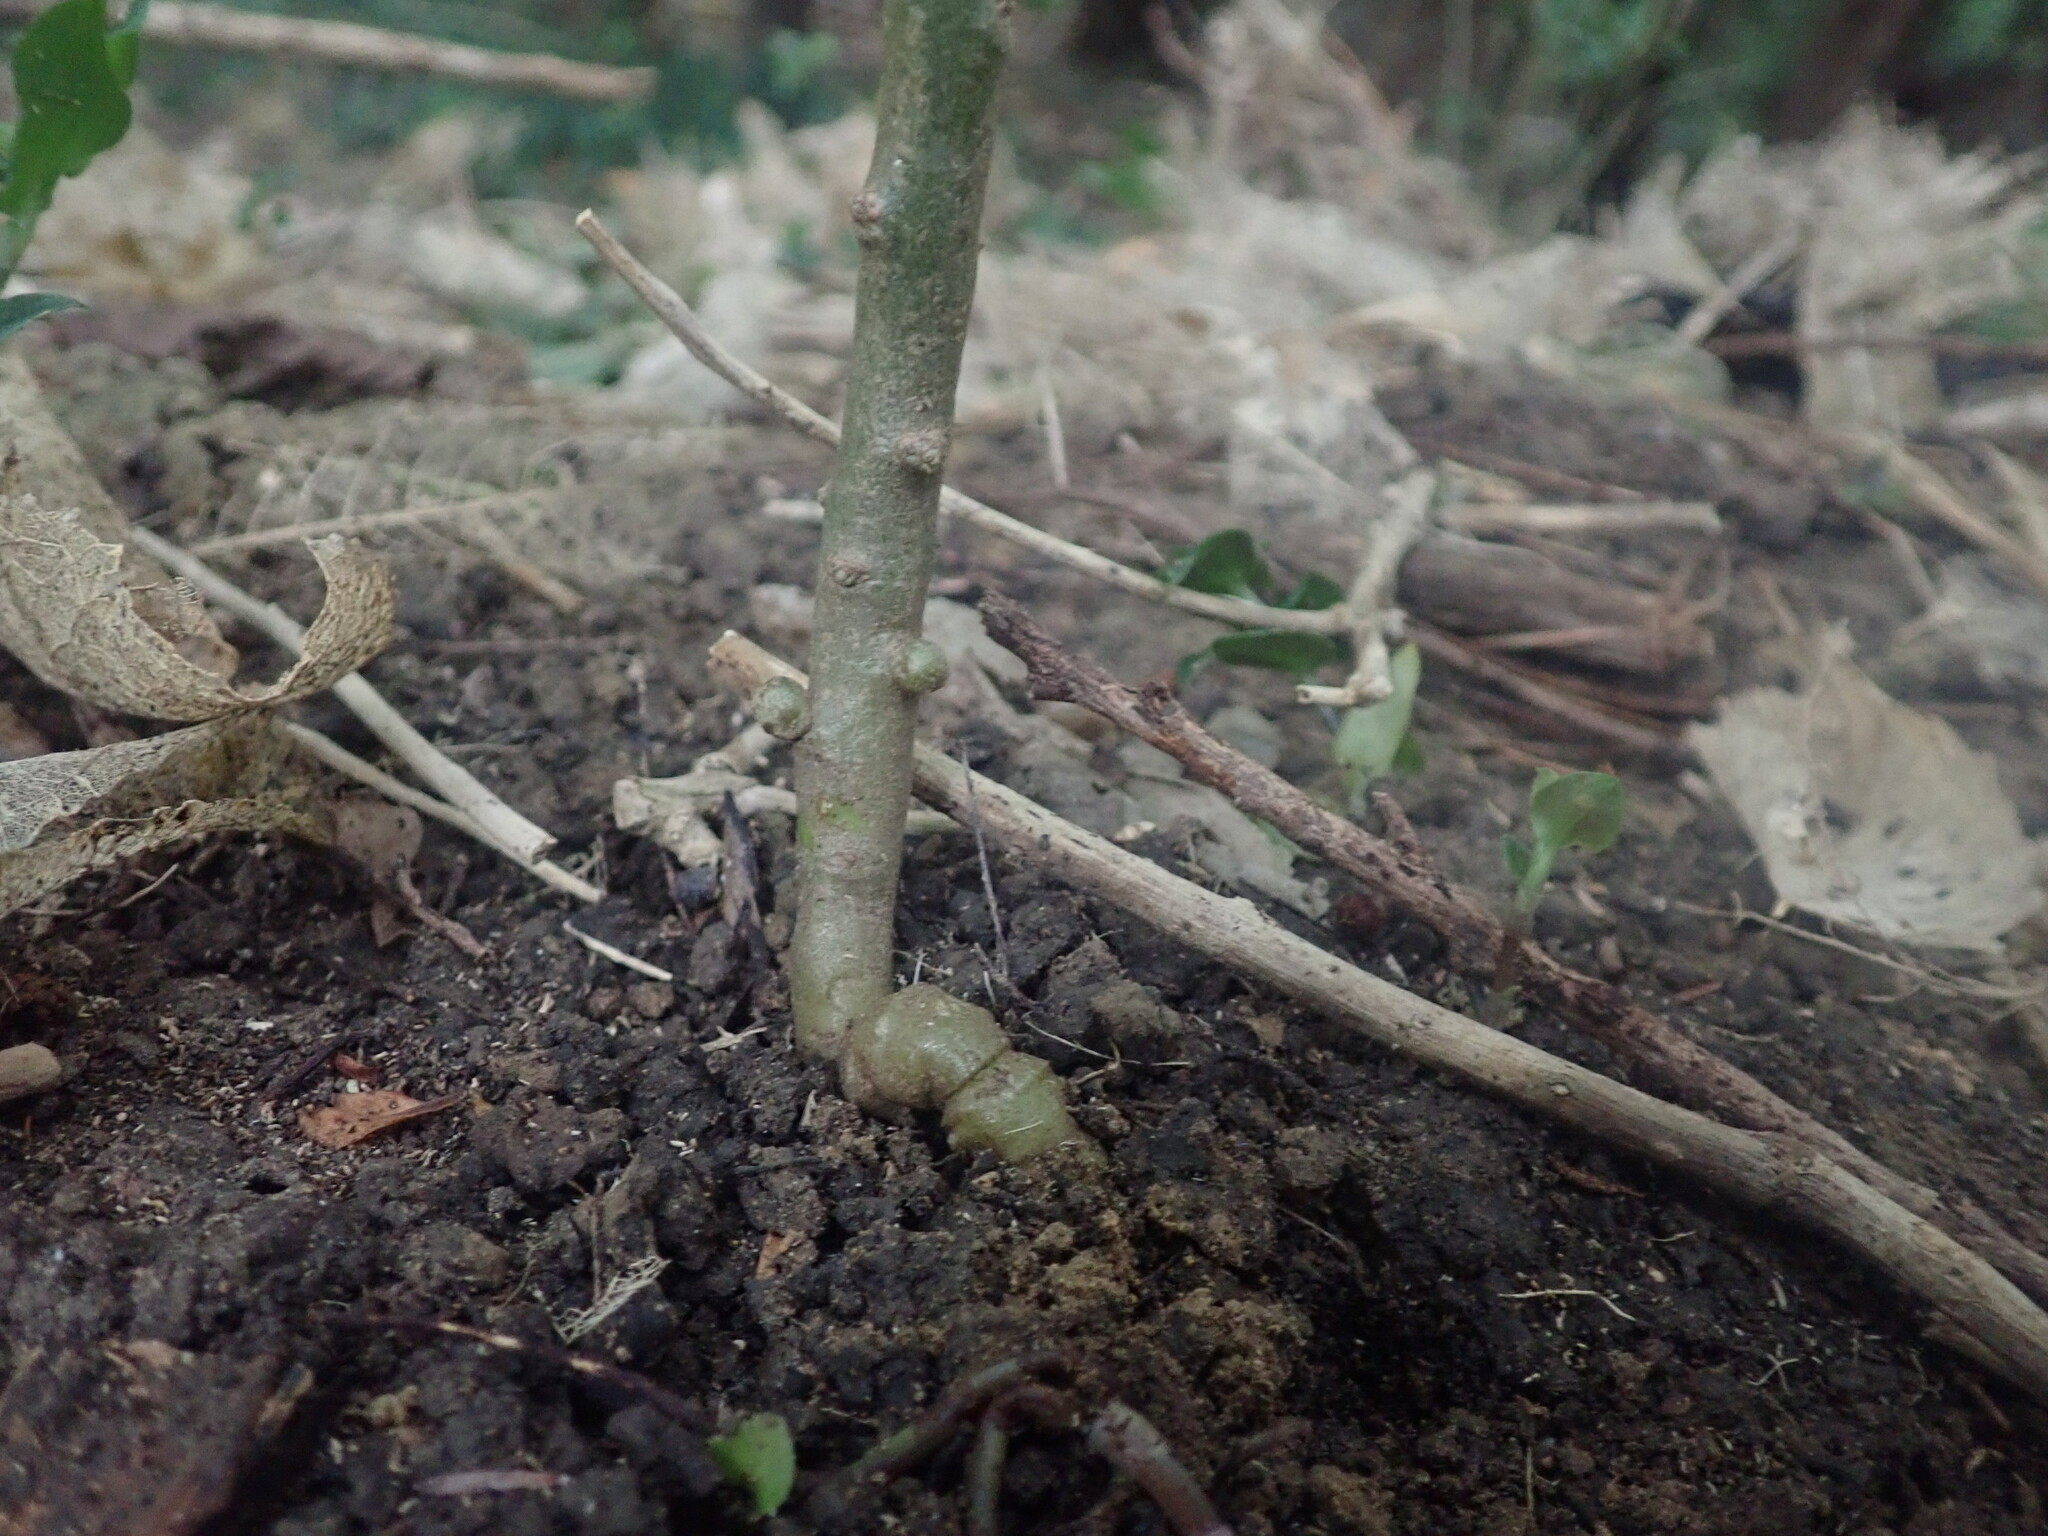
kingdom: Plantae
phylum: Tracheophyta
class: Magnoliopsida
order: Caryophyllales
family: Basellaceae
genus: Anredera
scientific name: Anredera cordifolia
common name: Heartleaf madeiravine
